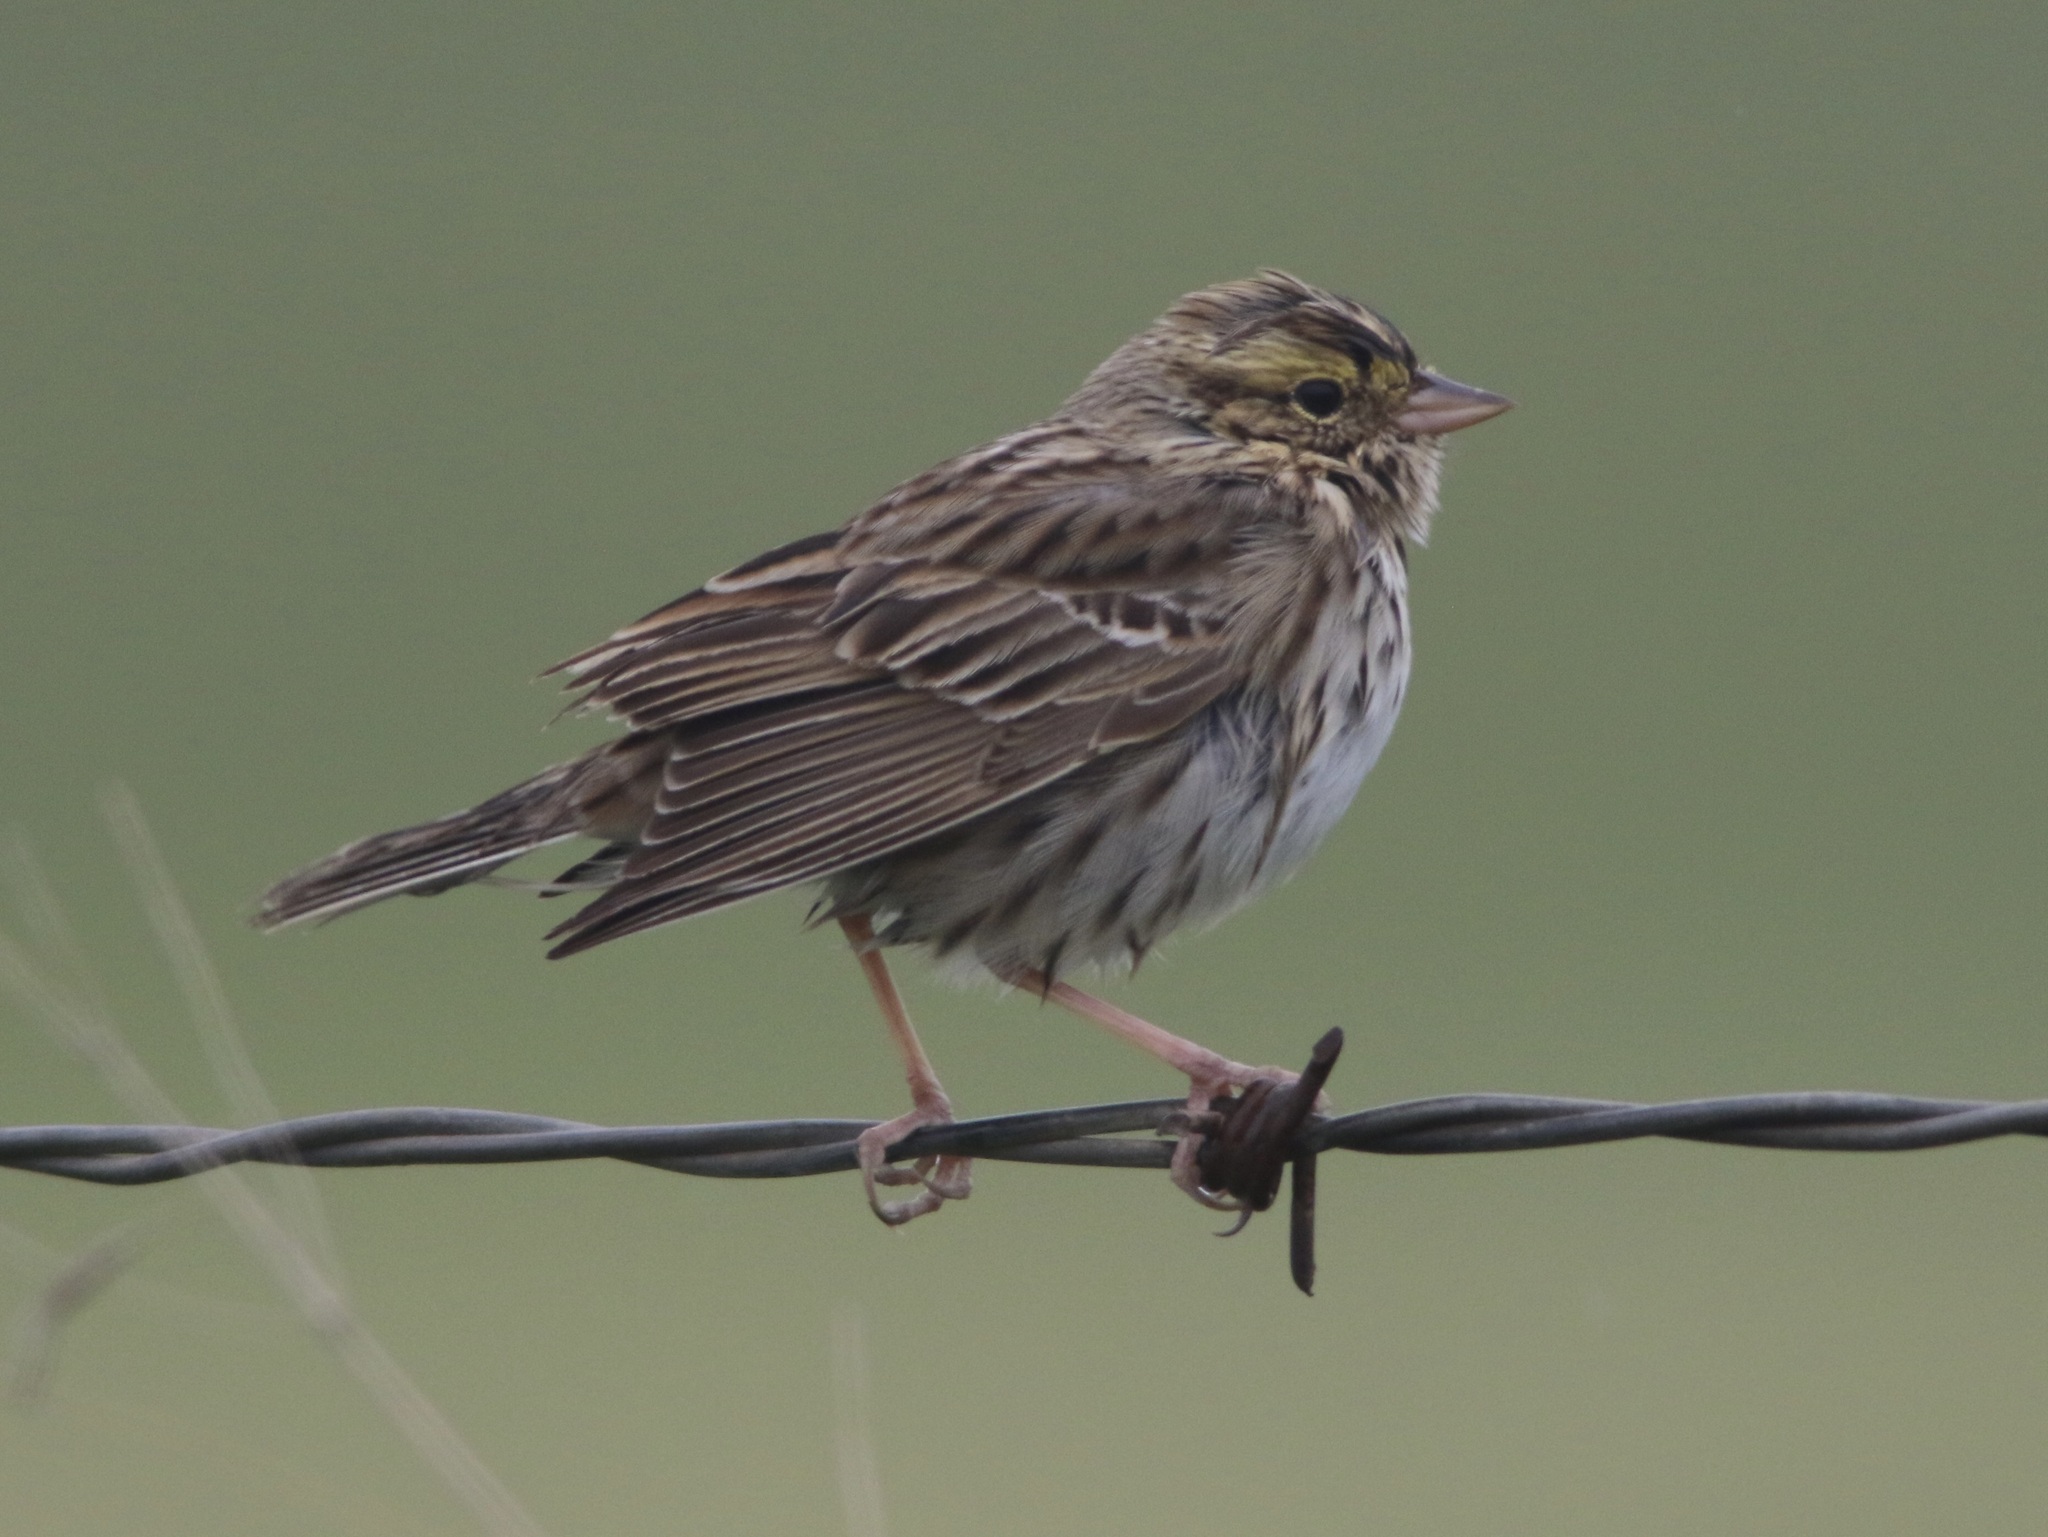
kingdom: Animalia
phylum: Chordata
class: Aves
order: Passeriformes
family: Passerellidae
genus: Passerculus
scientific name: Passerculus sandwichensis
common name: Savannah sparrow
